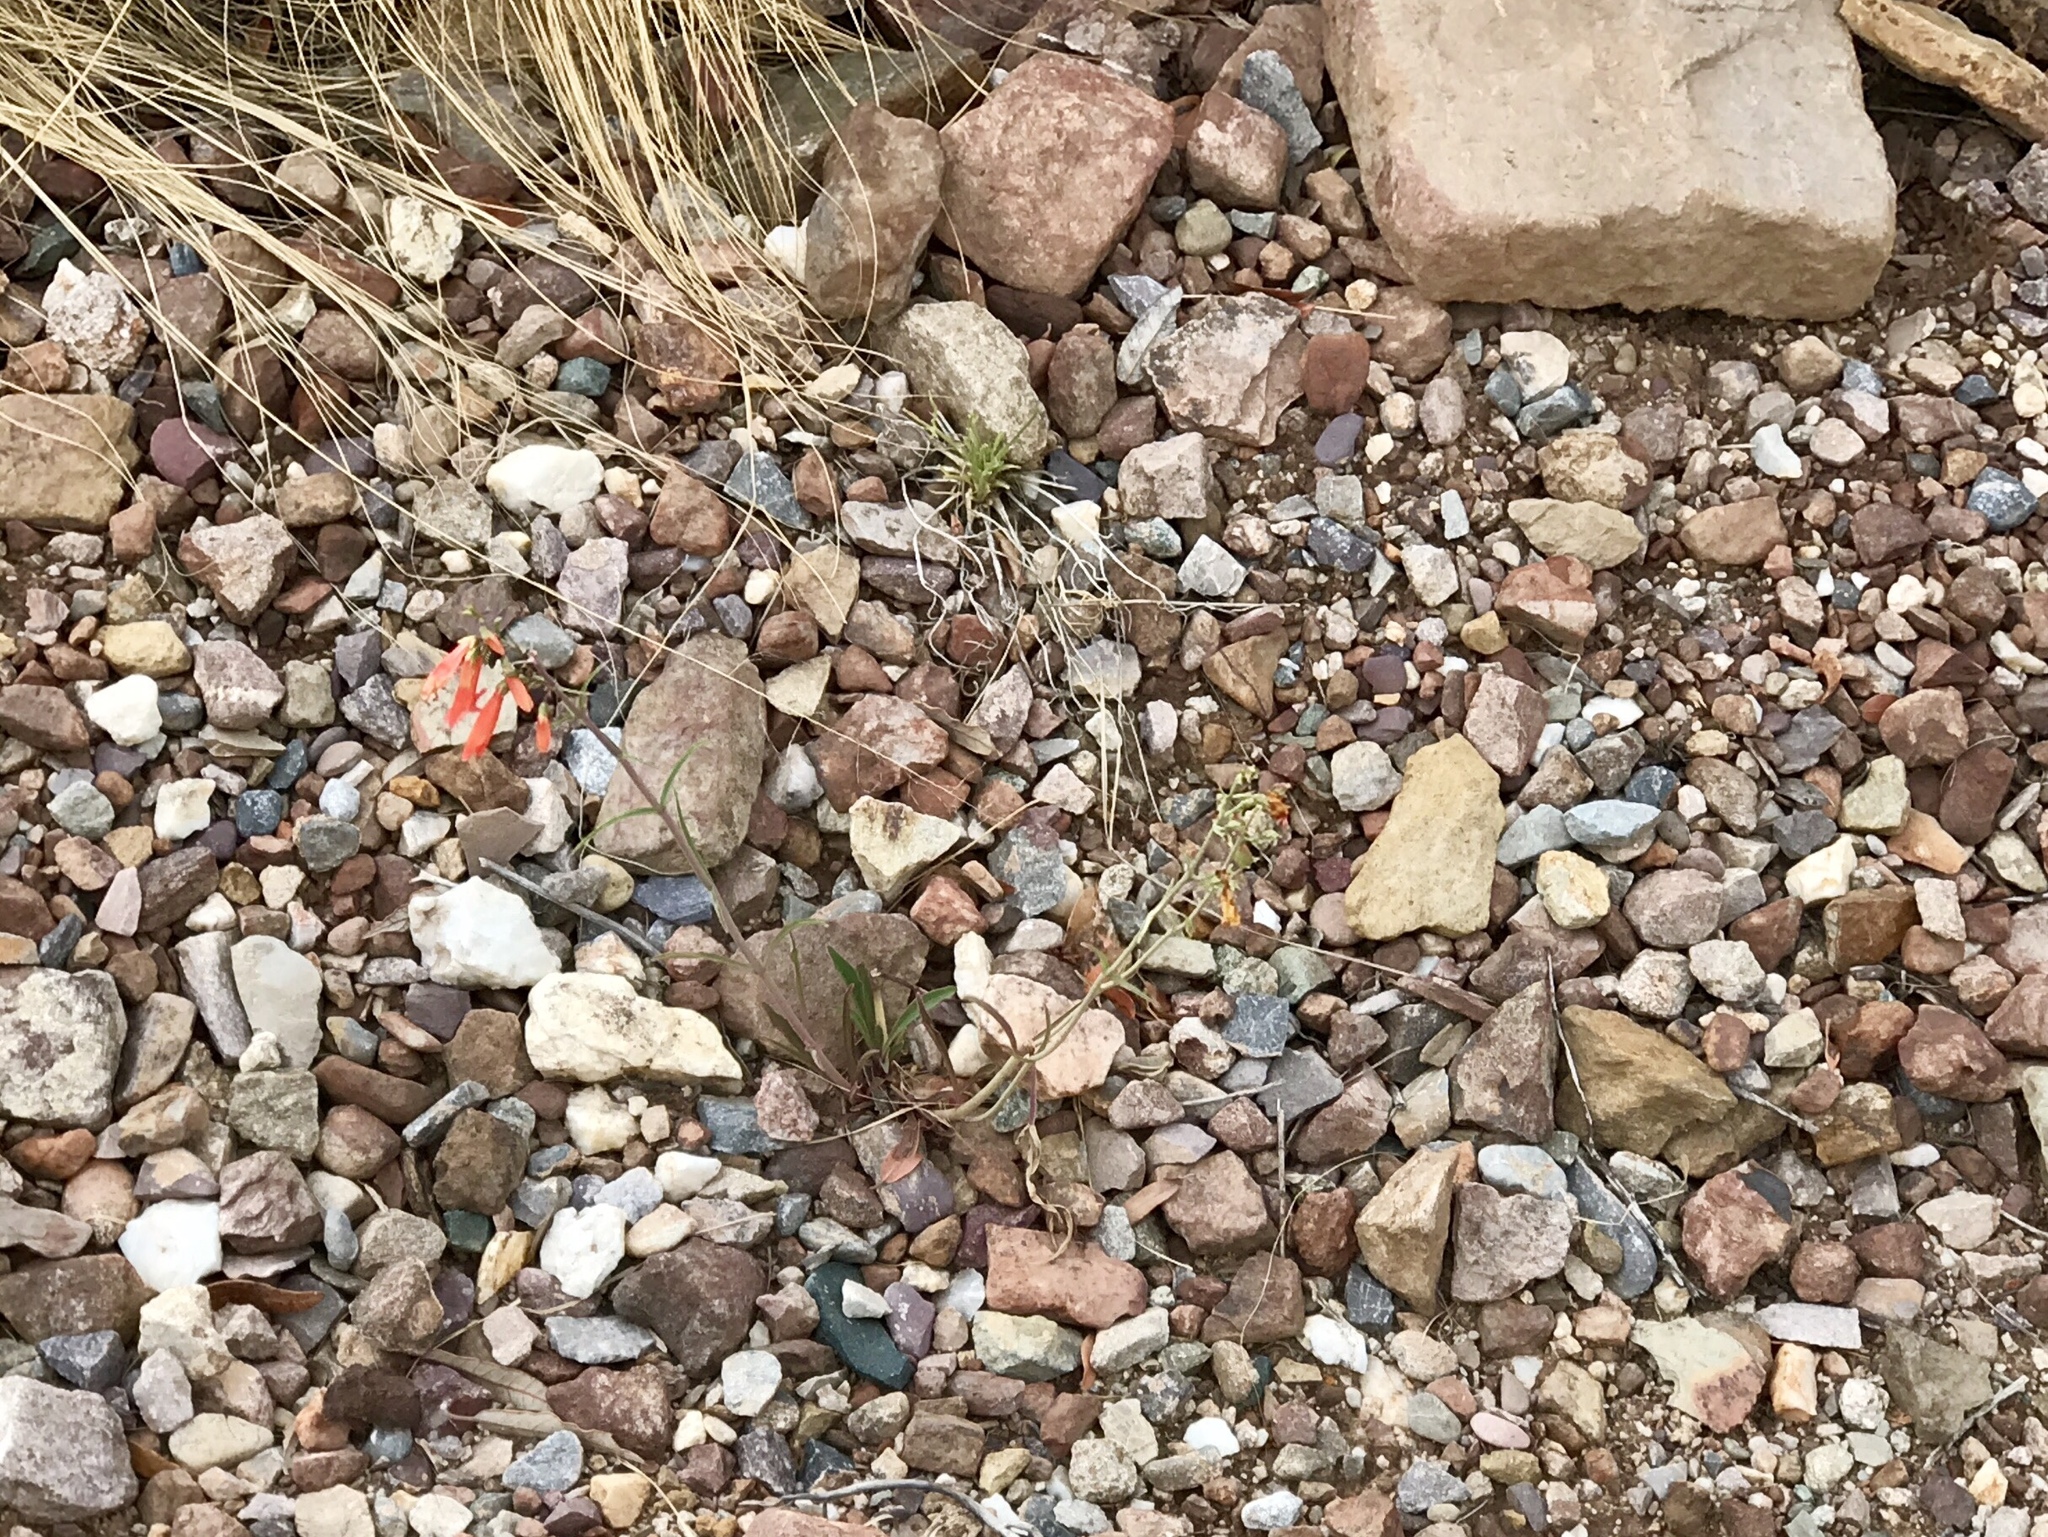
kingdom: Plantae
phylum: Tracheophyta
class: Magnoliopsida
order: Lamiales
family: Plantaginaceae
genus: Penstemon
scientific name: Penstemon barbatus
